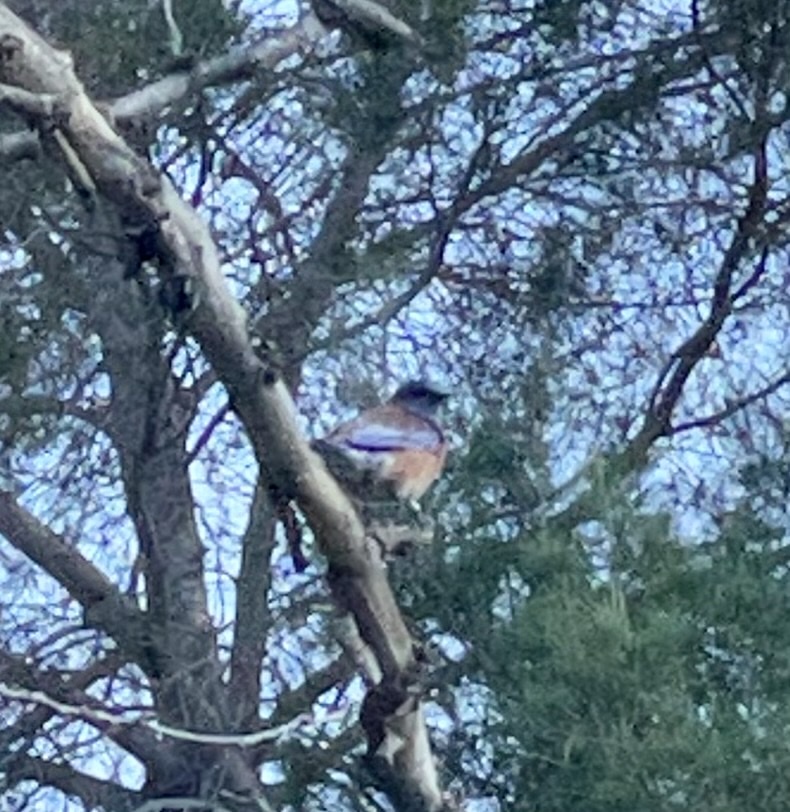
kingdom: Animalia
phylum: Chordata
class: Aves
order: Passeriformes
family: Turdidae
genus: Sialia
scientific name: Sialia mexicana
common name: Western bluebird
